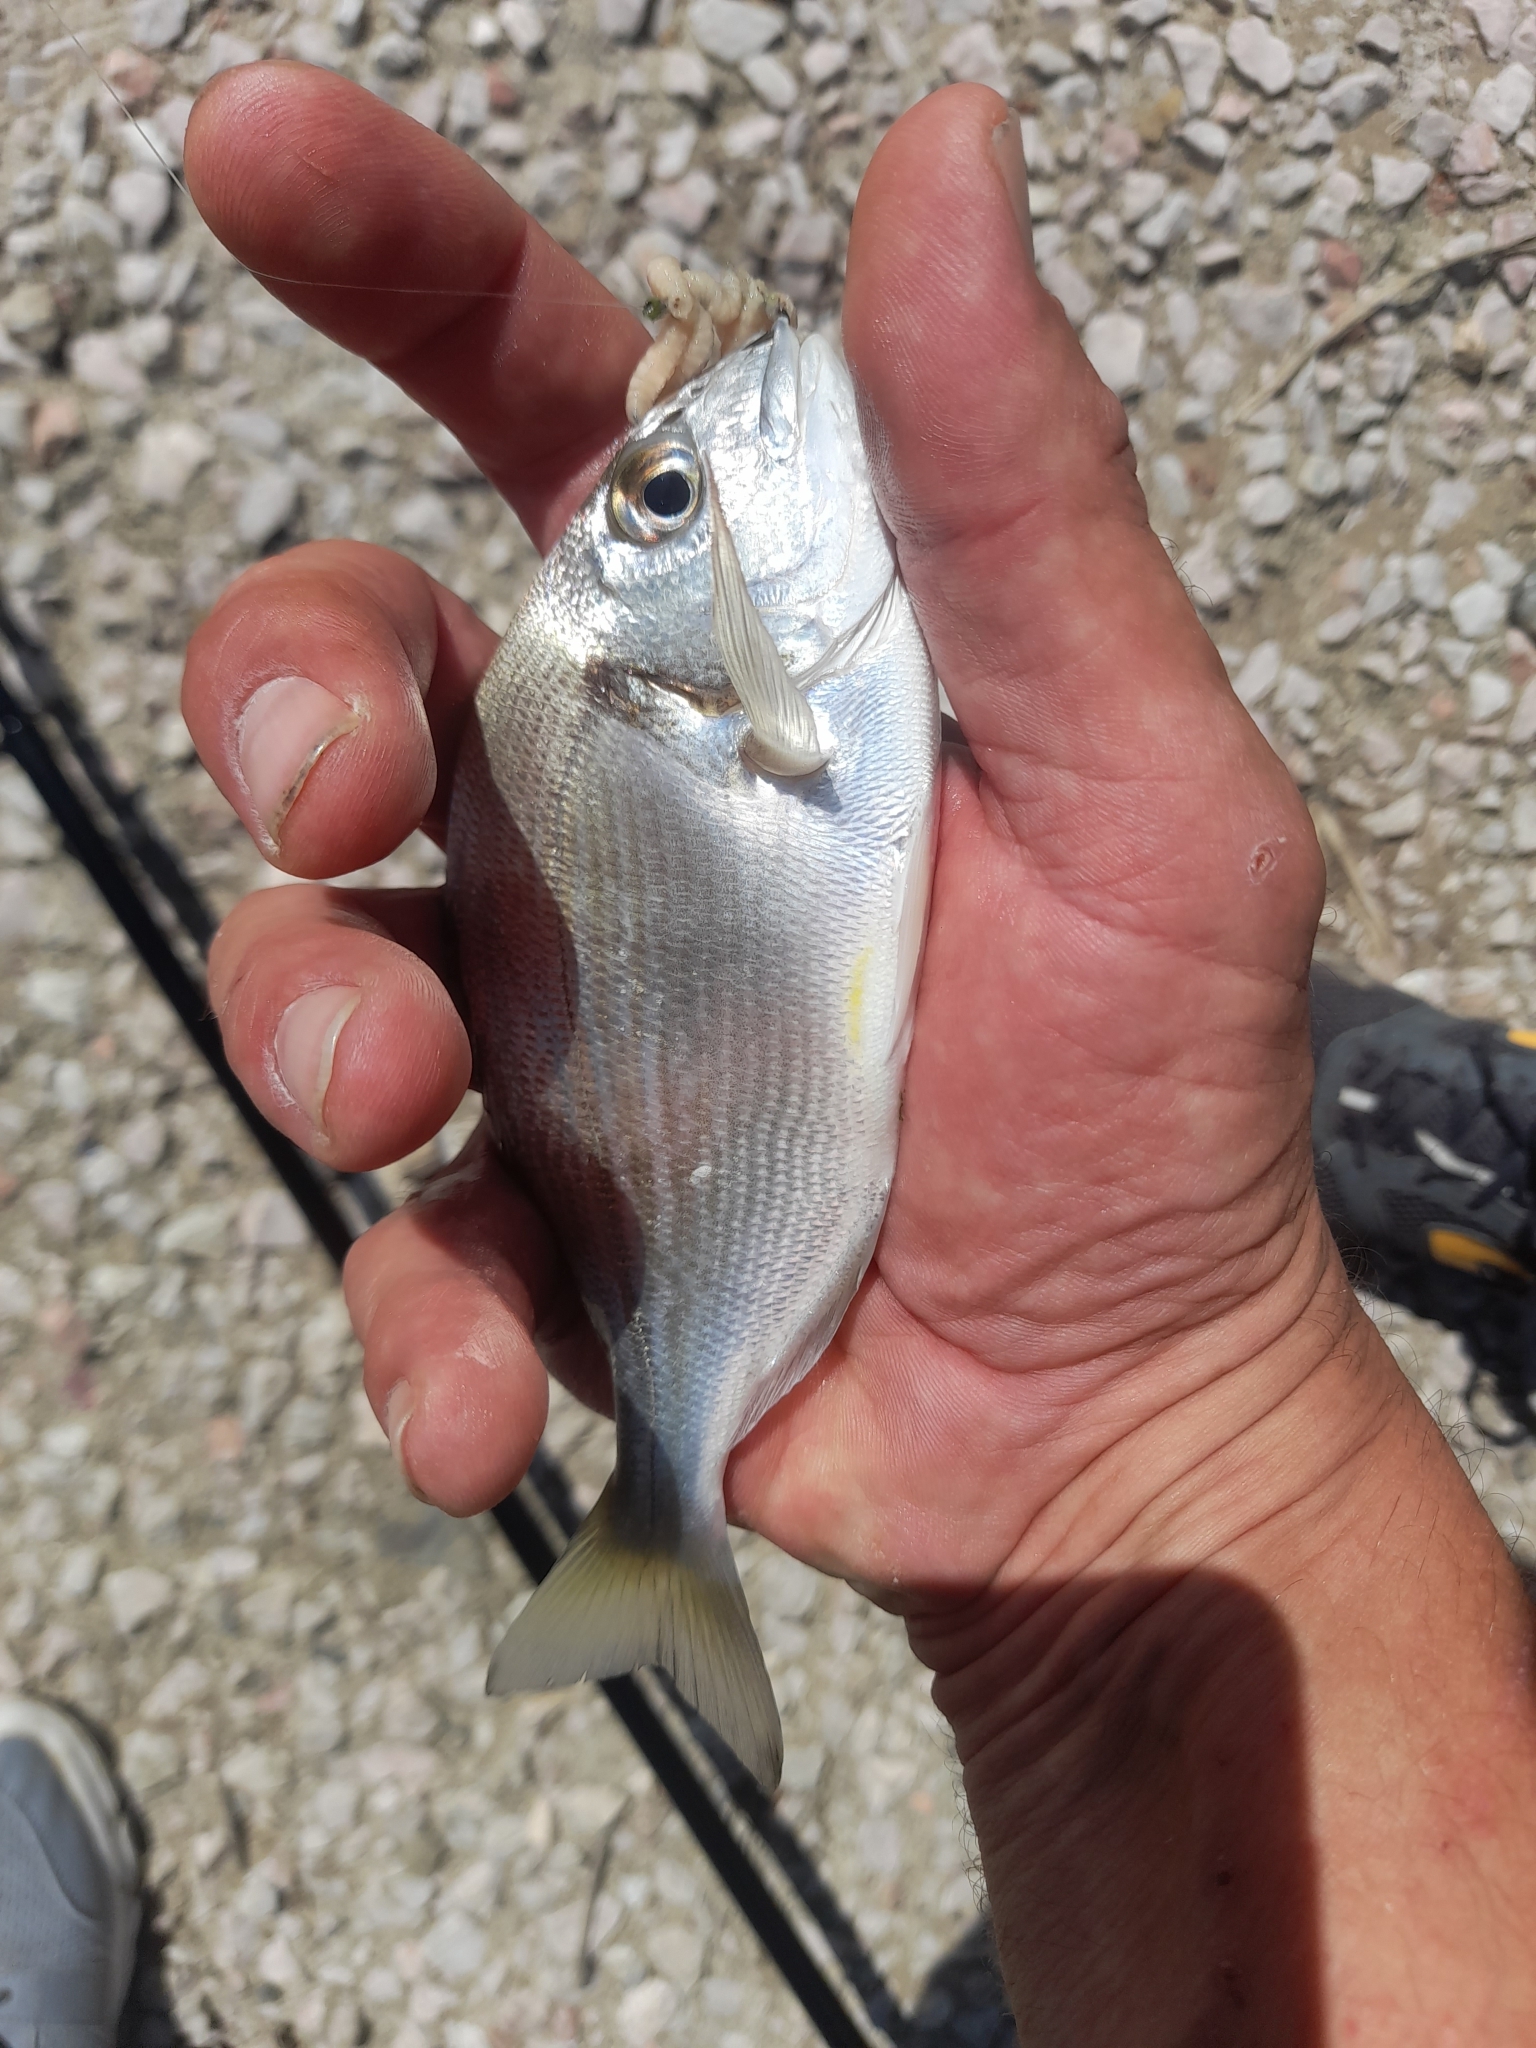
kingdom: Animalia
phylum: Chordata
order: Perciformes
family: Sparidae
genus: Sparus
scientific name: Sparus aurata
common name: Gilthead
